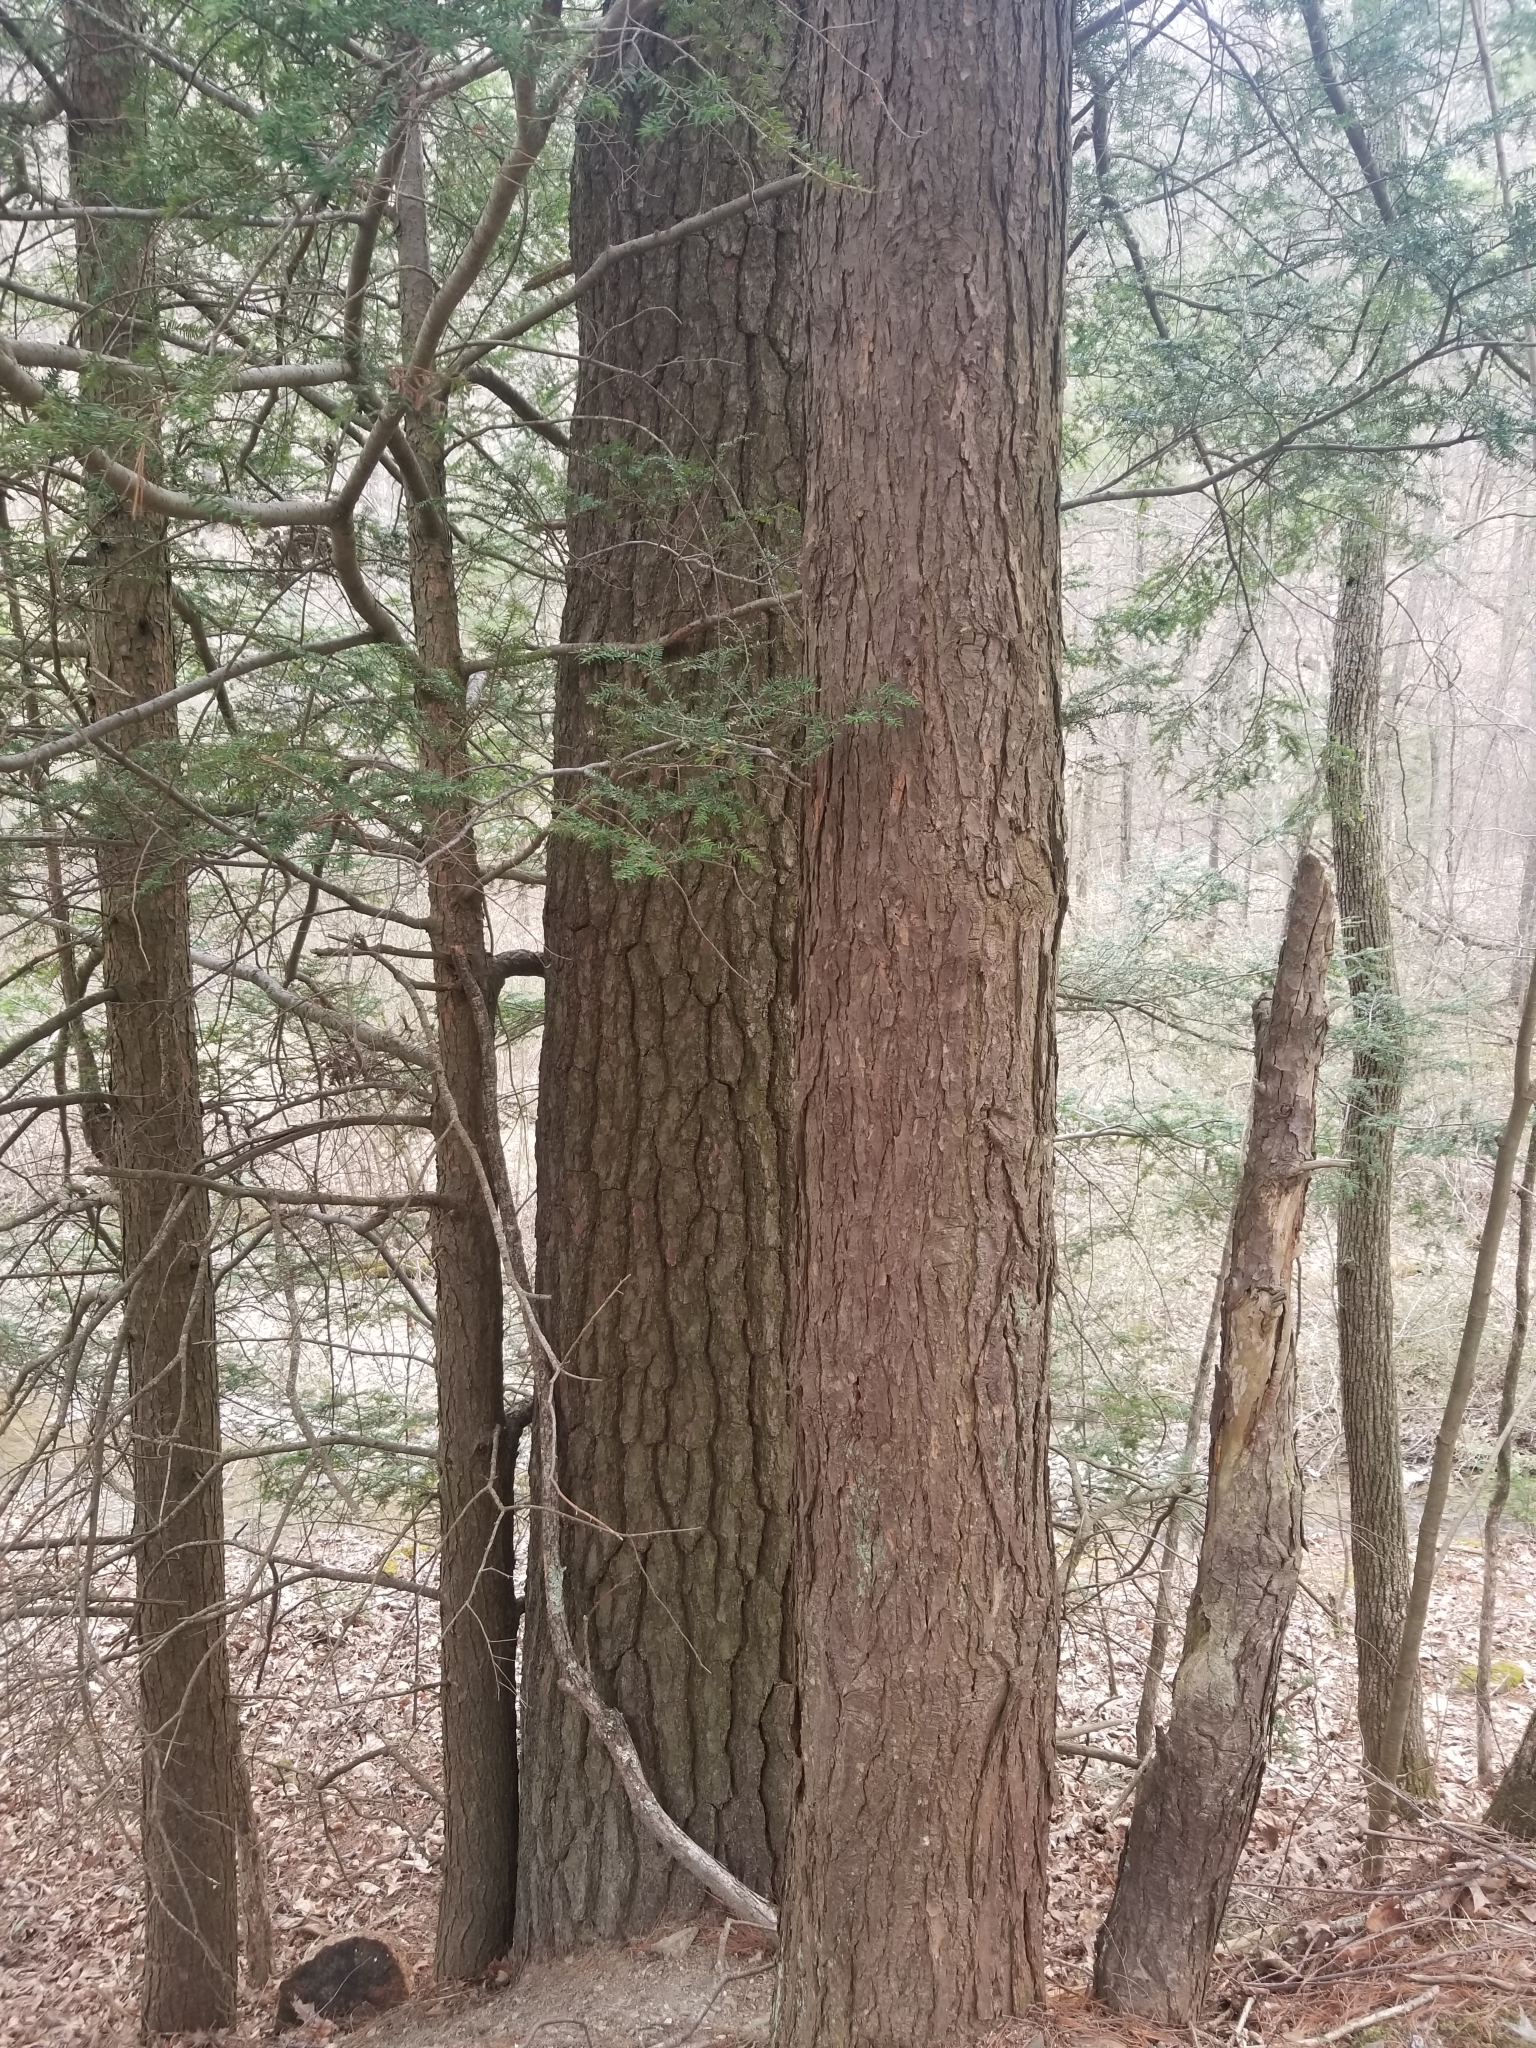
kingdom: Plantae
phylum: Tracheophyta
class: Pinopsida
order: Pinales
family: Pinaceae
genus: Tsuga
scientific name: Tsuga canadensis
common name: Eastern hemlock
